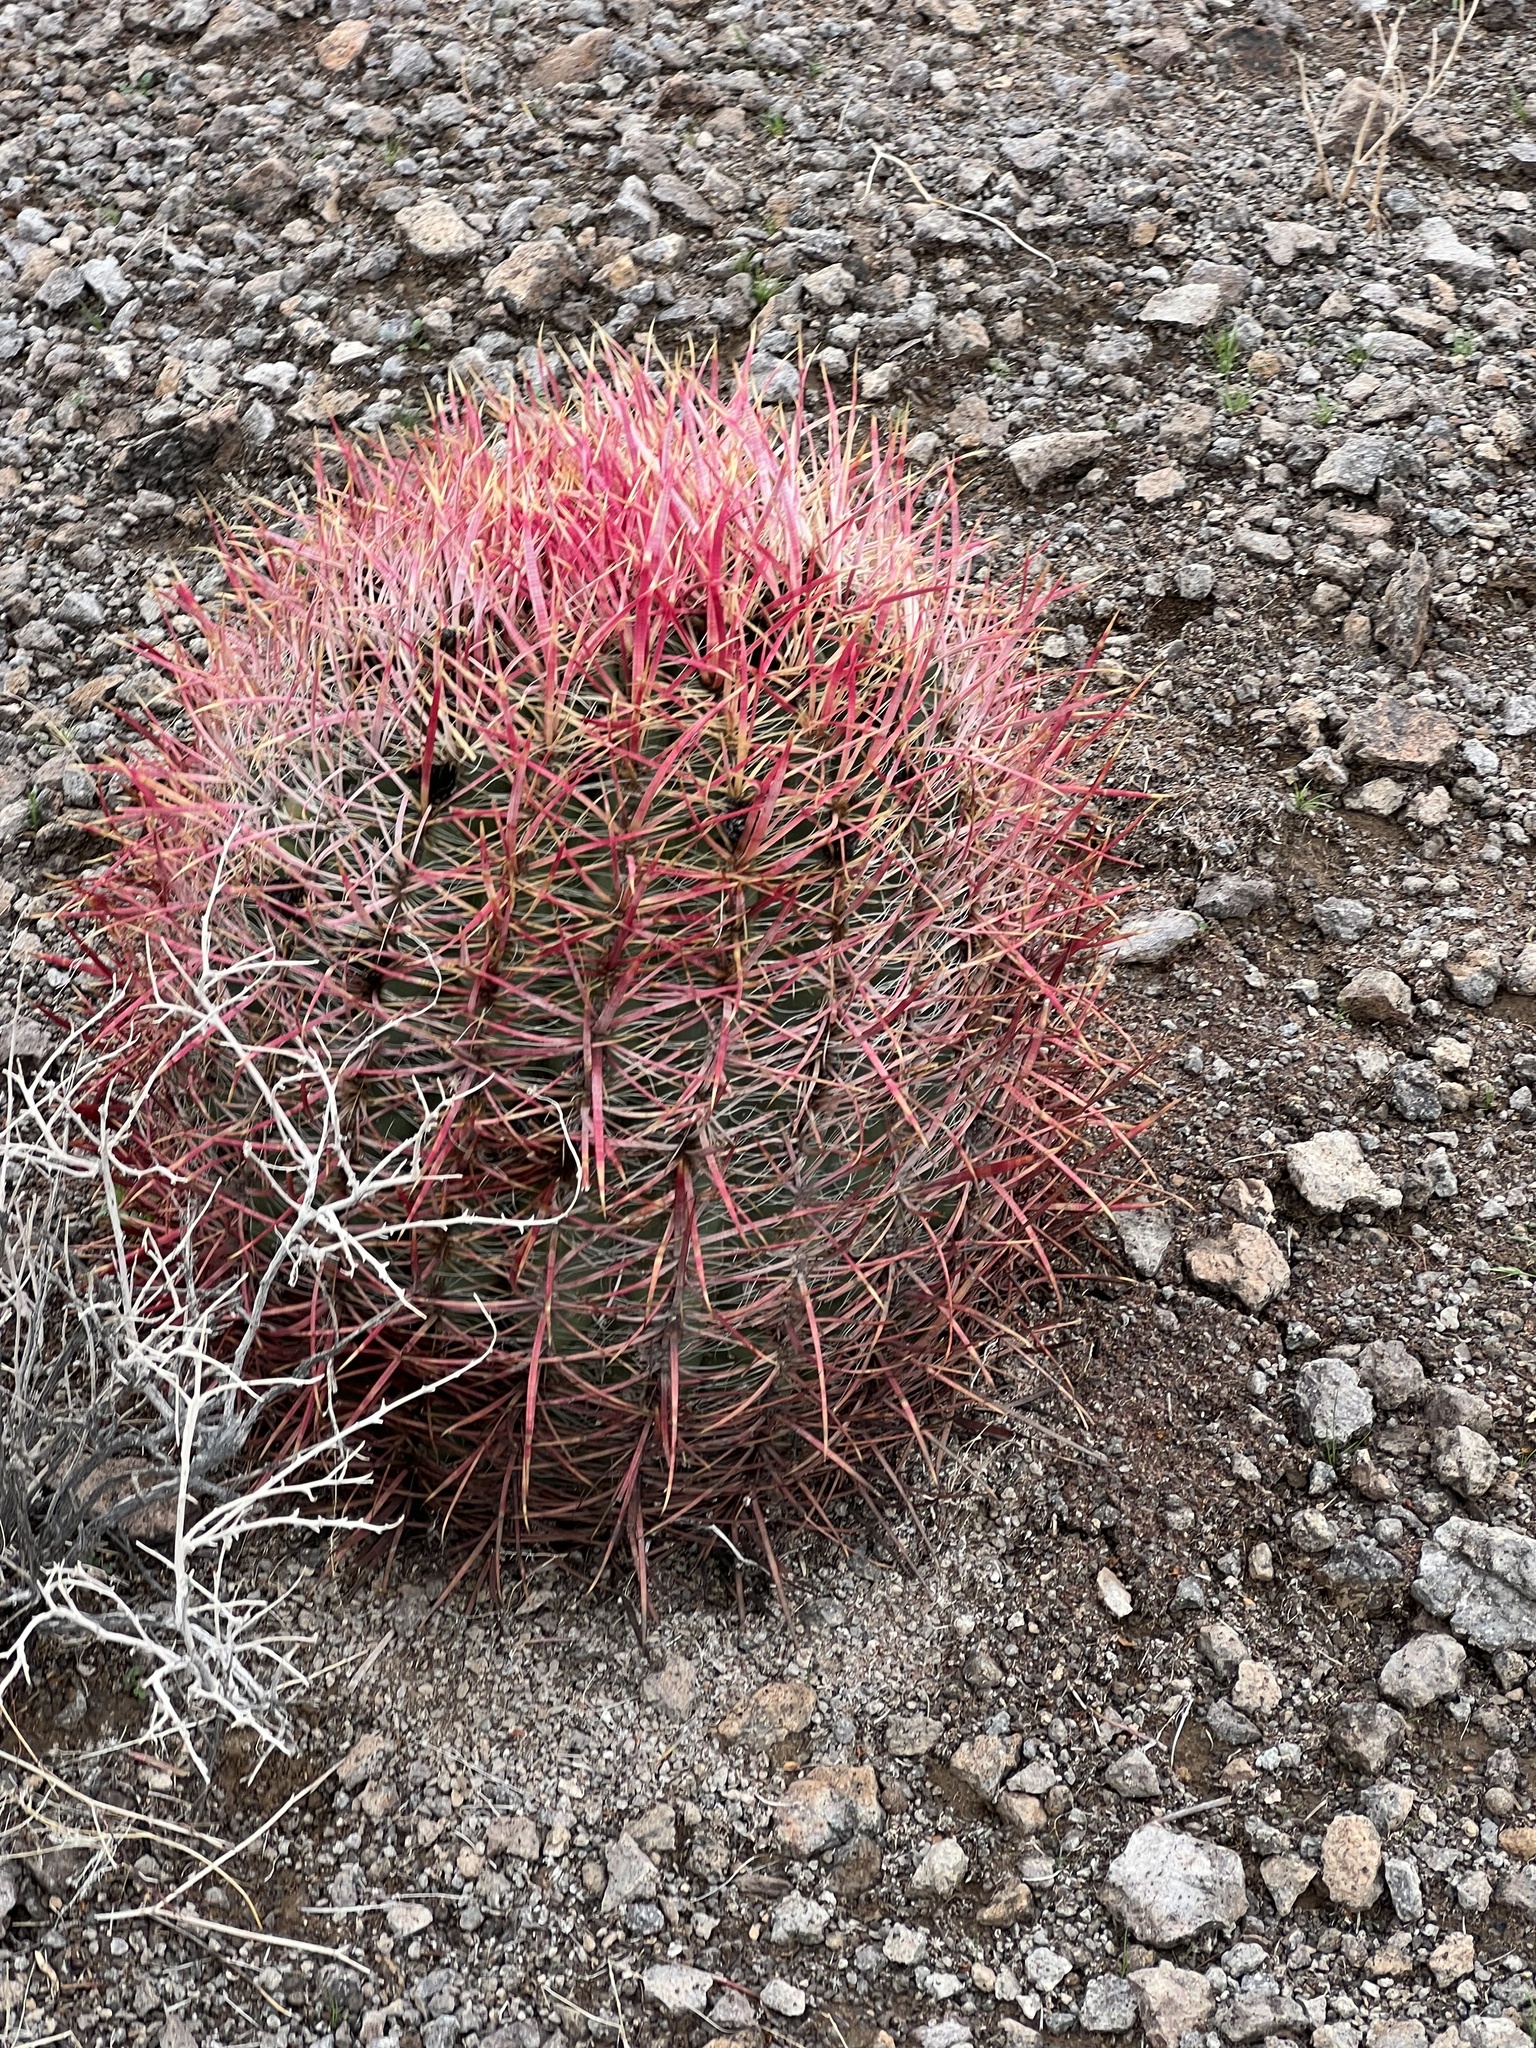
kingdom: Plantae
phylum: Tracheophyta
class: Magnoliopsida
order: Caryophyllales
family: Cactaceae
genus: Ferocactus
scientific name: Ferocactus cylindraceus
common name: California barrel cactus
